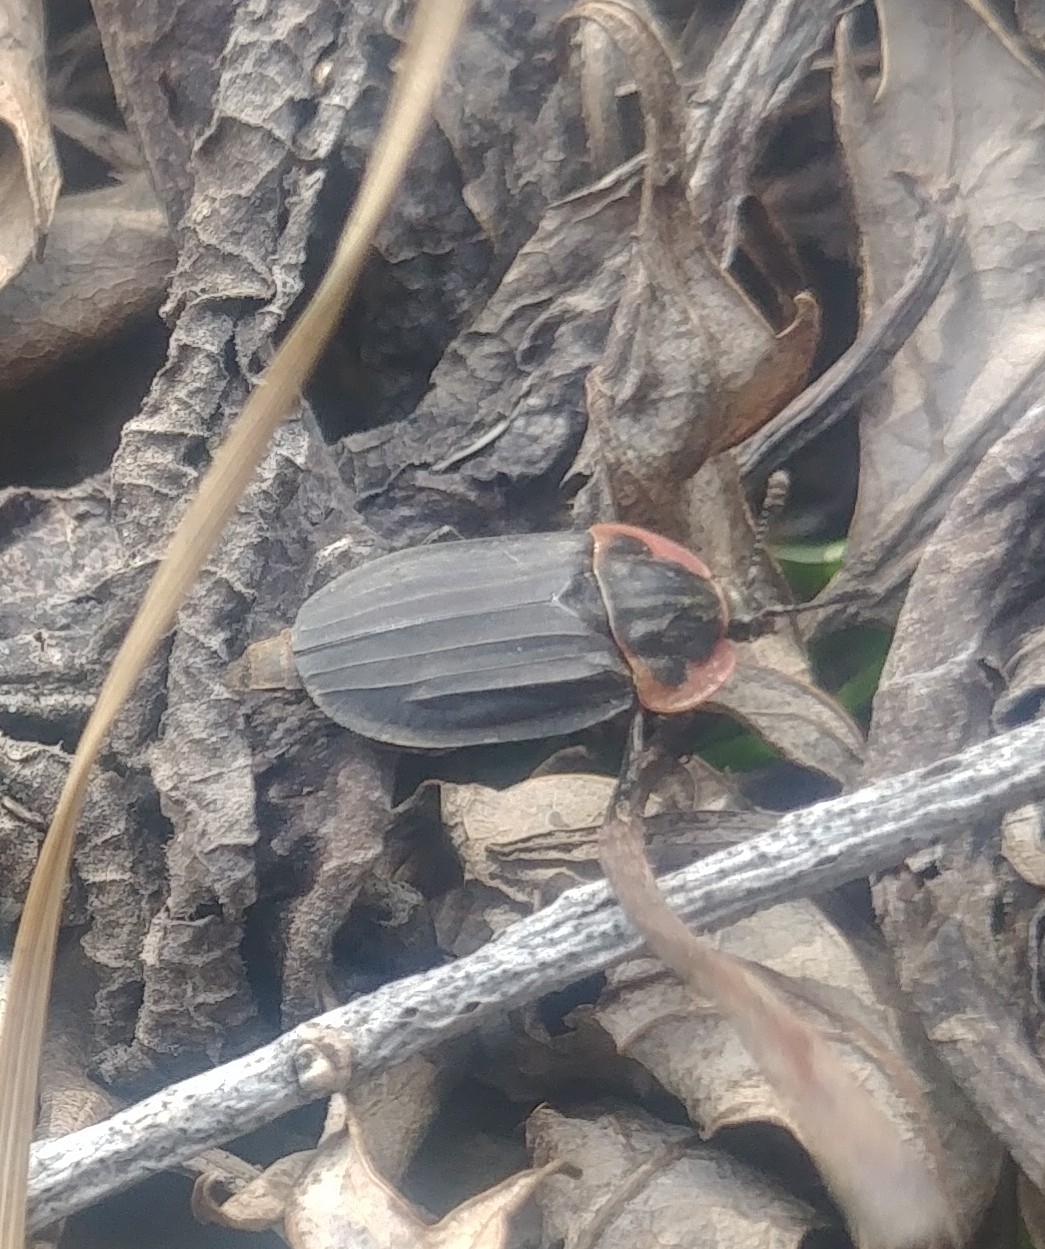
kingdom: Animalia
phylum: Arthropoda
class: Insecta
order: Coleoptera
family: Staphylinidae
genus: Oiceoptoma
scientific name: Oiceoptoma noveboracense
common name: Margined carrion beetle
